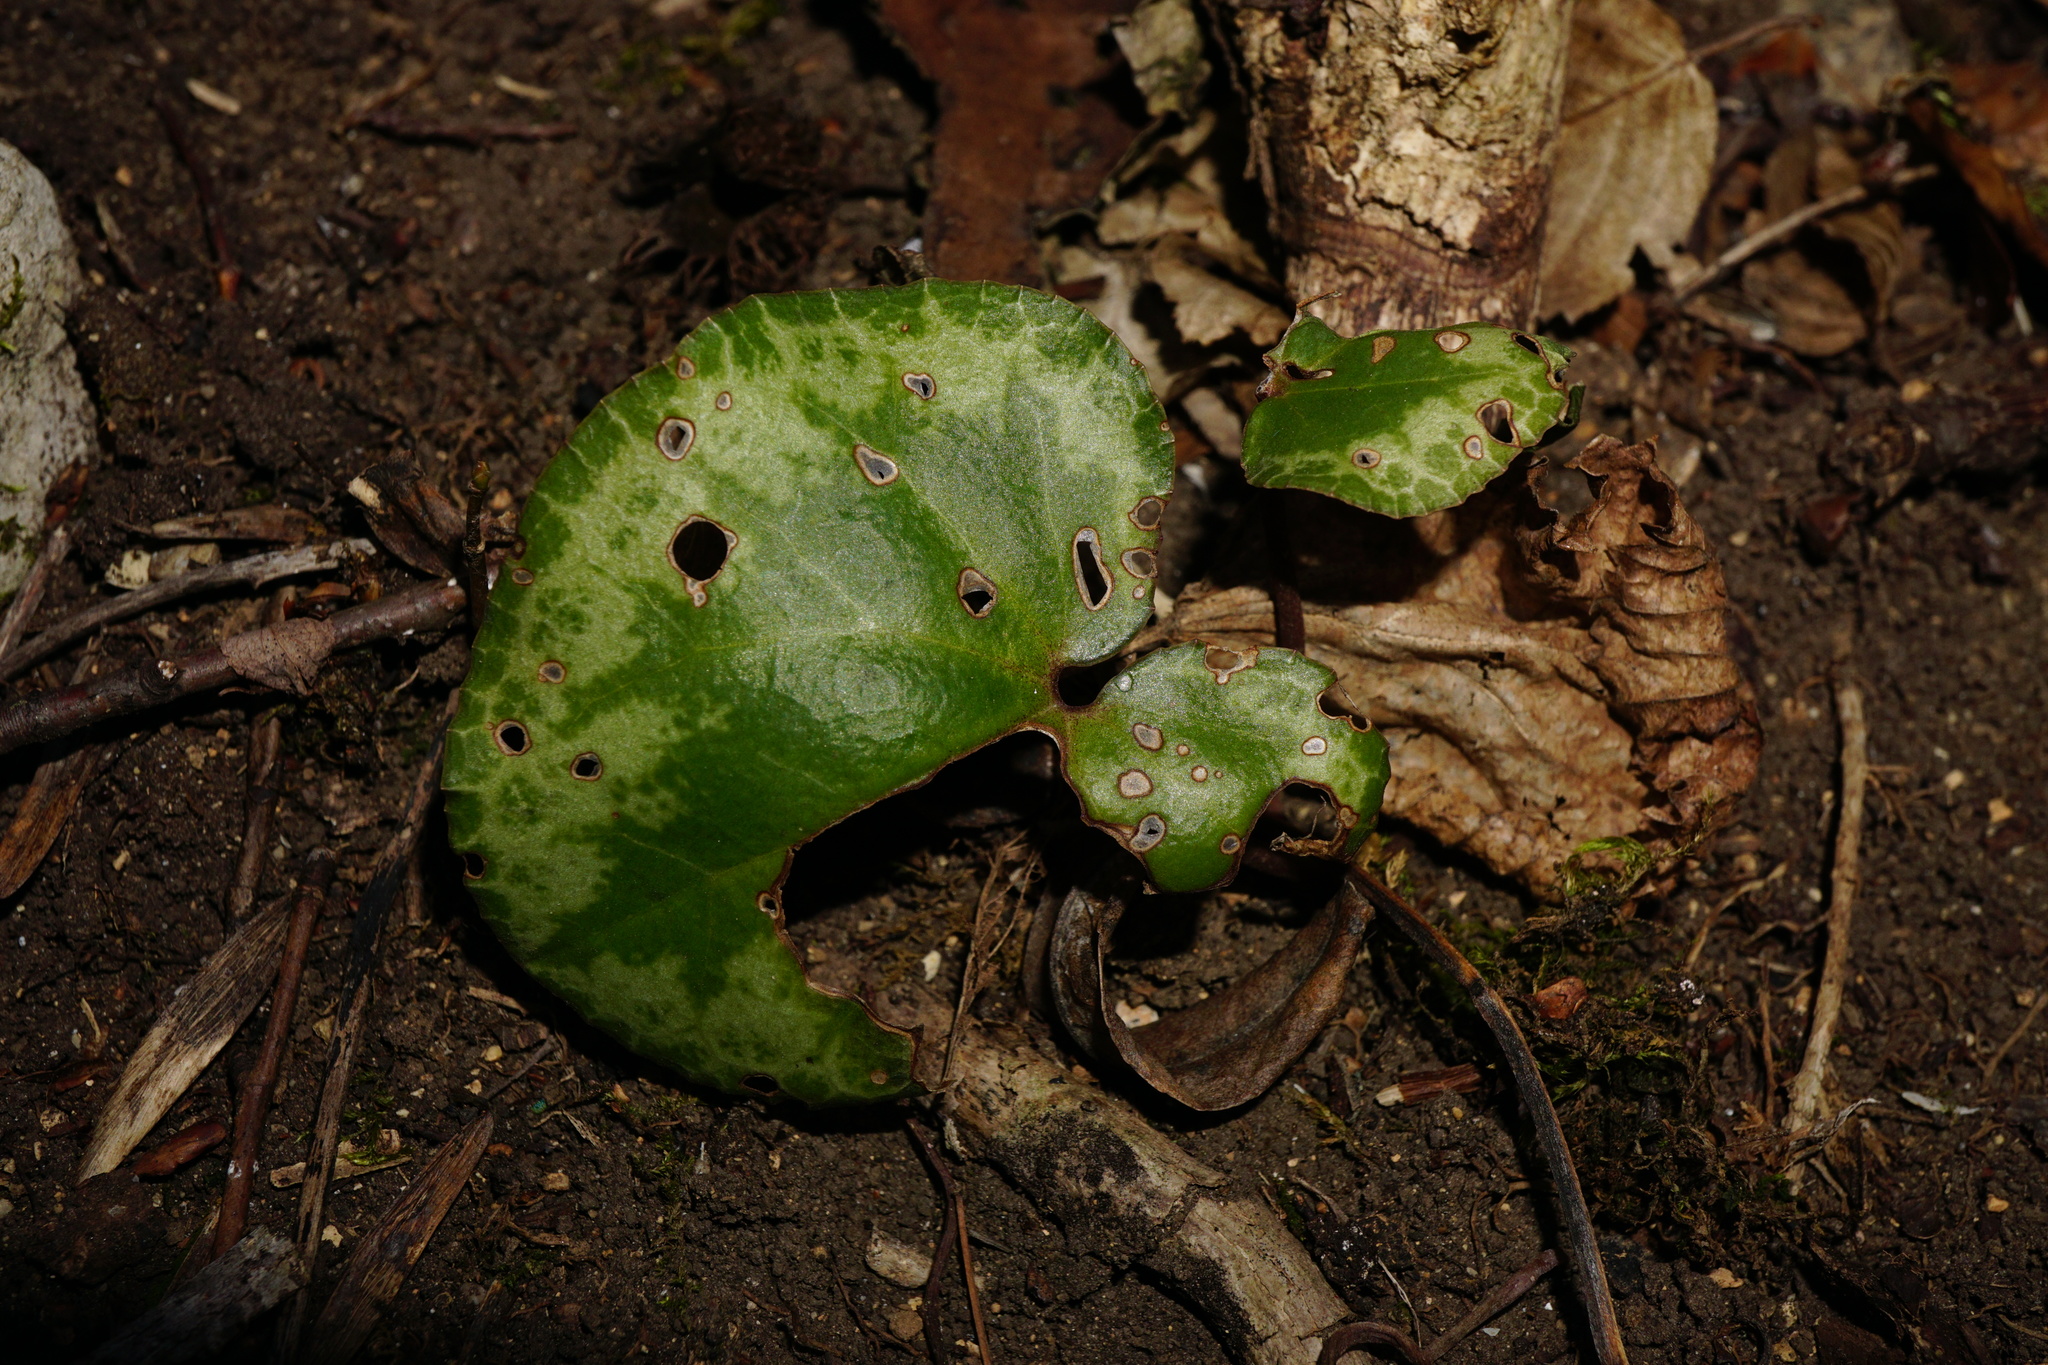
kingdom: Plantae
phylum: Tracheophyta
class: Magnoliopsida
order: Ericales
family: Primulaceae
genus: Cyclamen
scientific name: Cyclamen purpurascens
